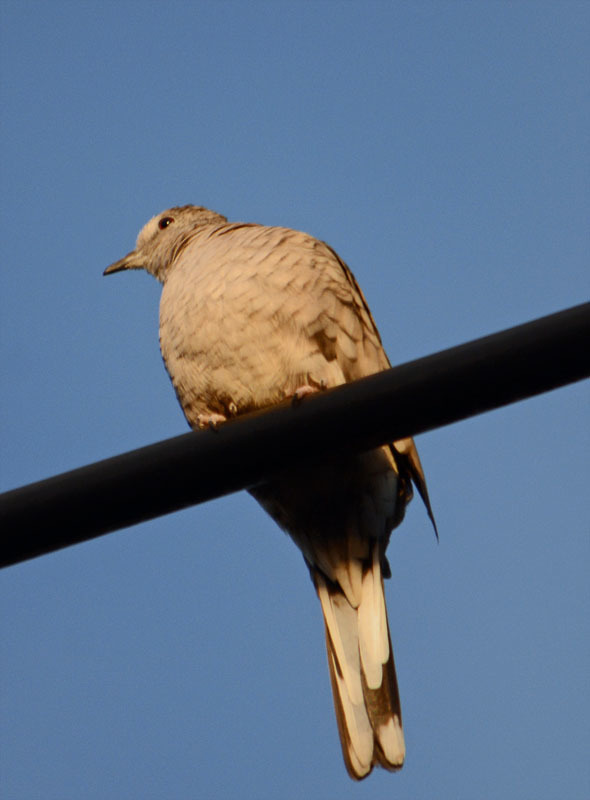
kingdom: Animalia
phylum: Chordata
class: Aves
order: Columbiformes
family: Columbidae
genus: Columbina
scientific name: Columbina inca
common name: Inca dove
